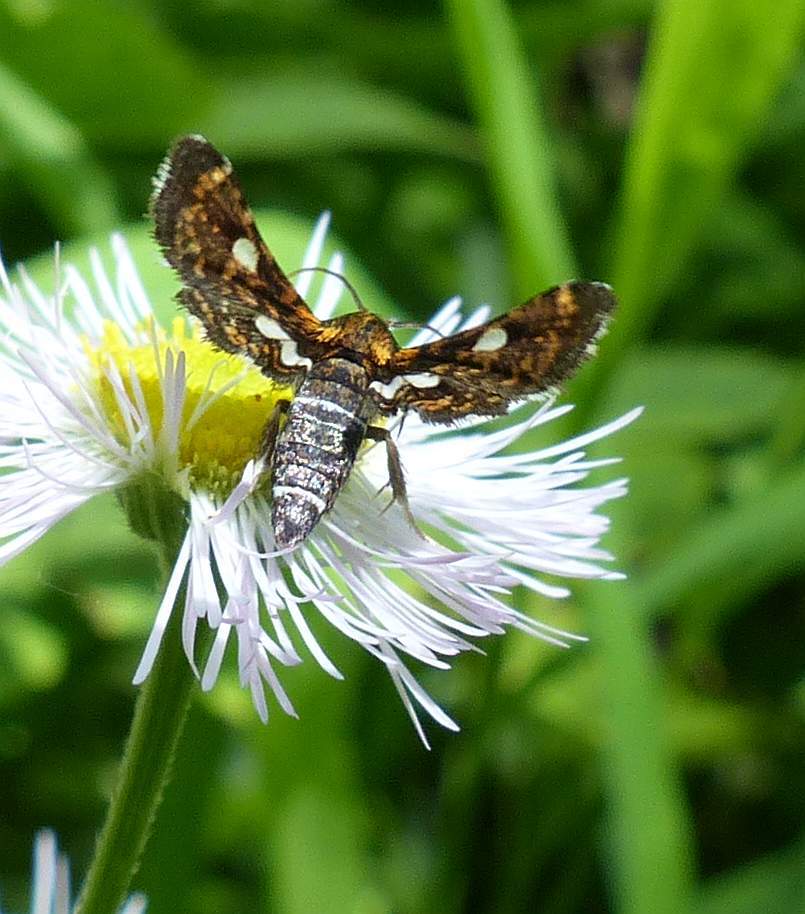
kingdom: Animalia
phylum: Arthropoda
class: Insecta
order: Lepidoptera
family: Thyrididae
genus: Thyris
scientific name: Thyris maculata
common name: Spotted thyris moth
